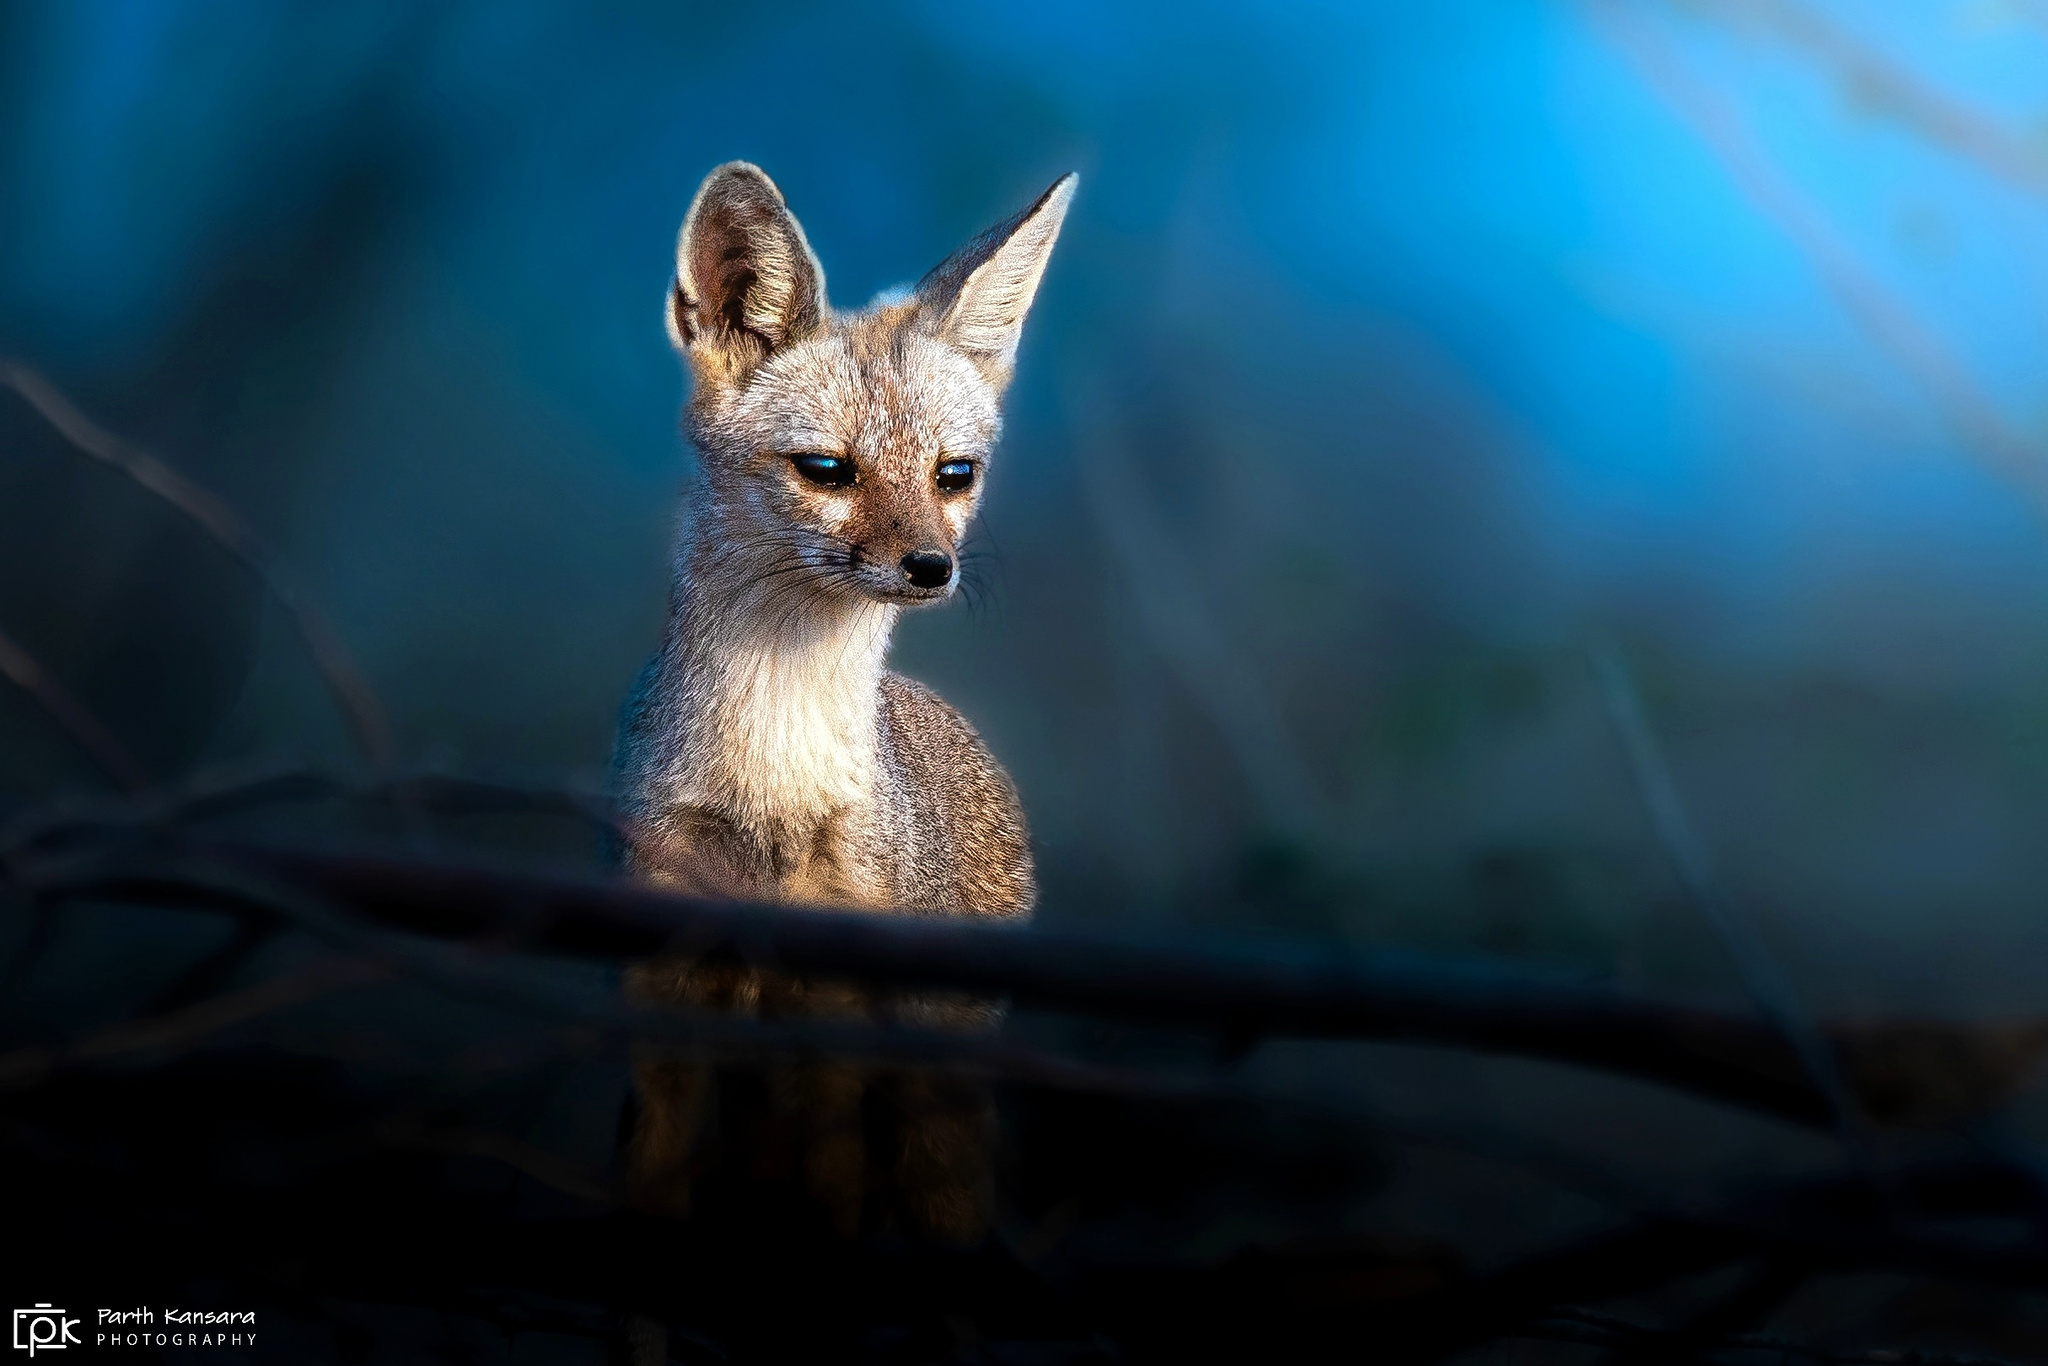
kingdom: Animalia
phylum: Chordata
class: Mammalia
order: Carnivora
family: Canidae
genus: Vulpes
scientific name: Vulpes bengalensis
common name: Bengal fox
